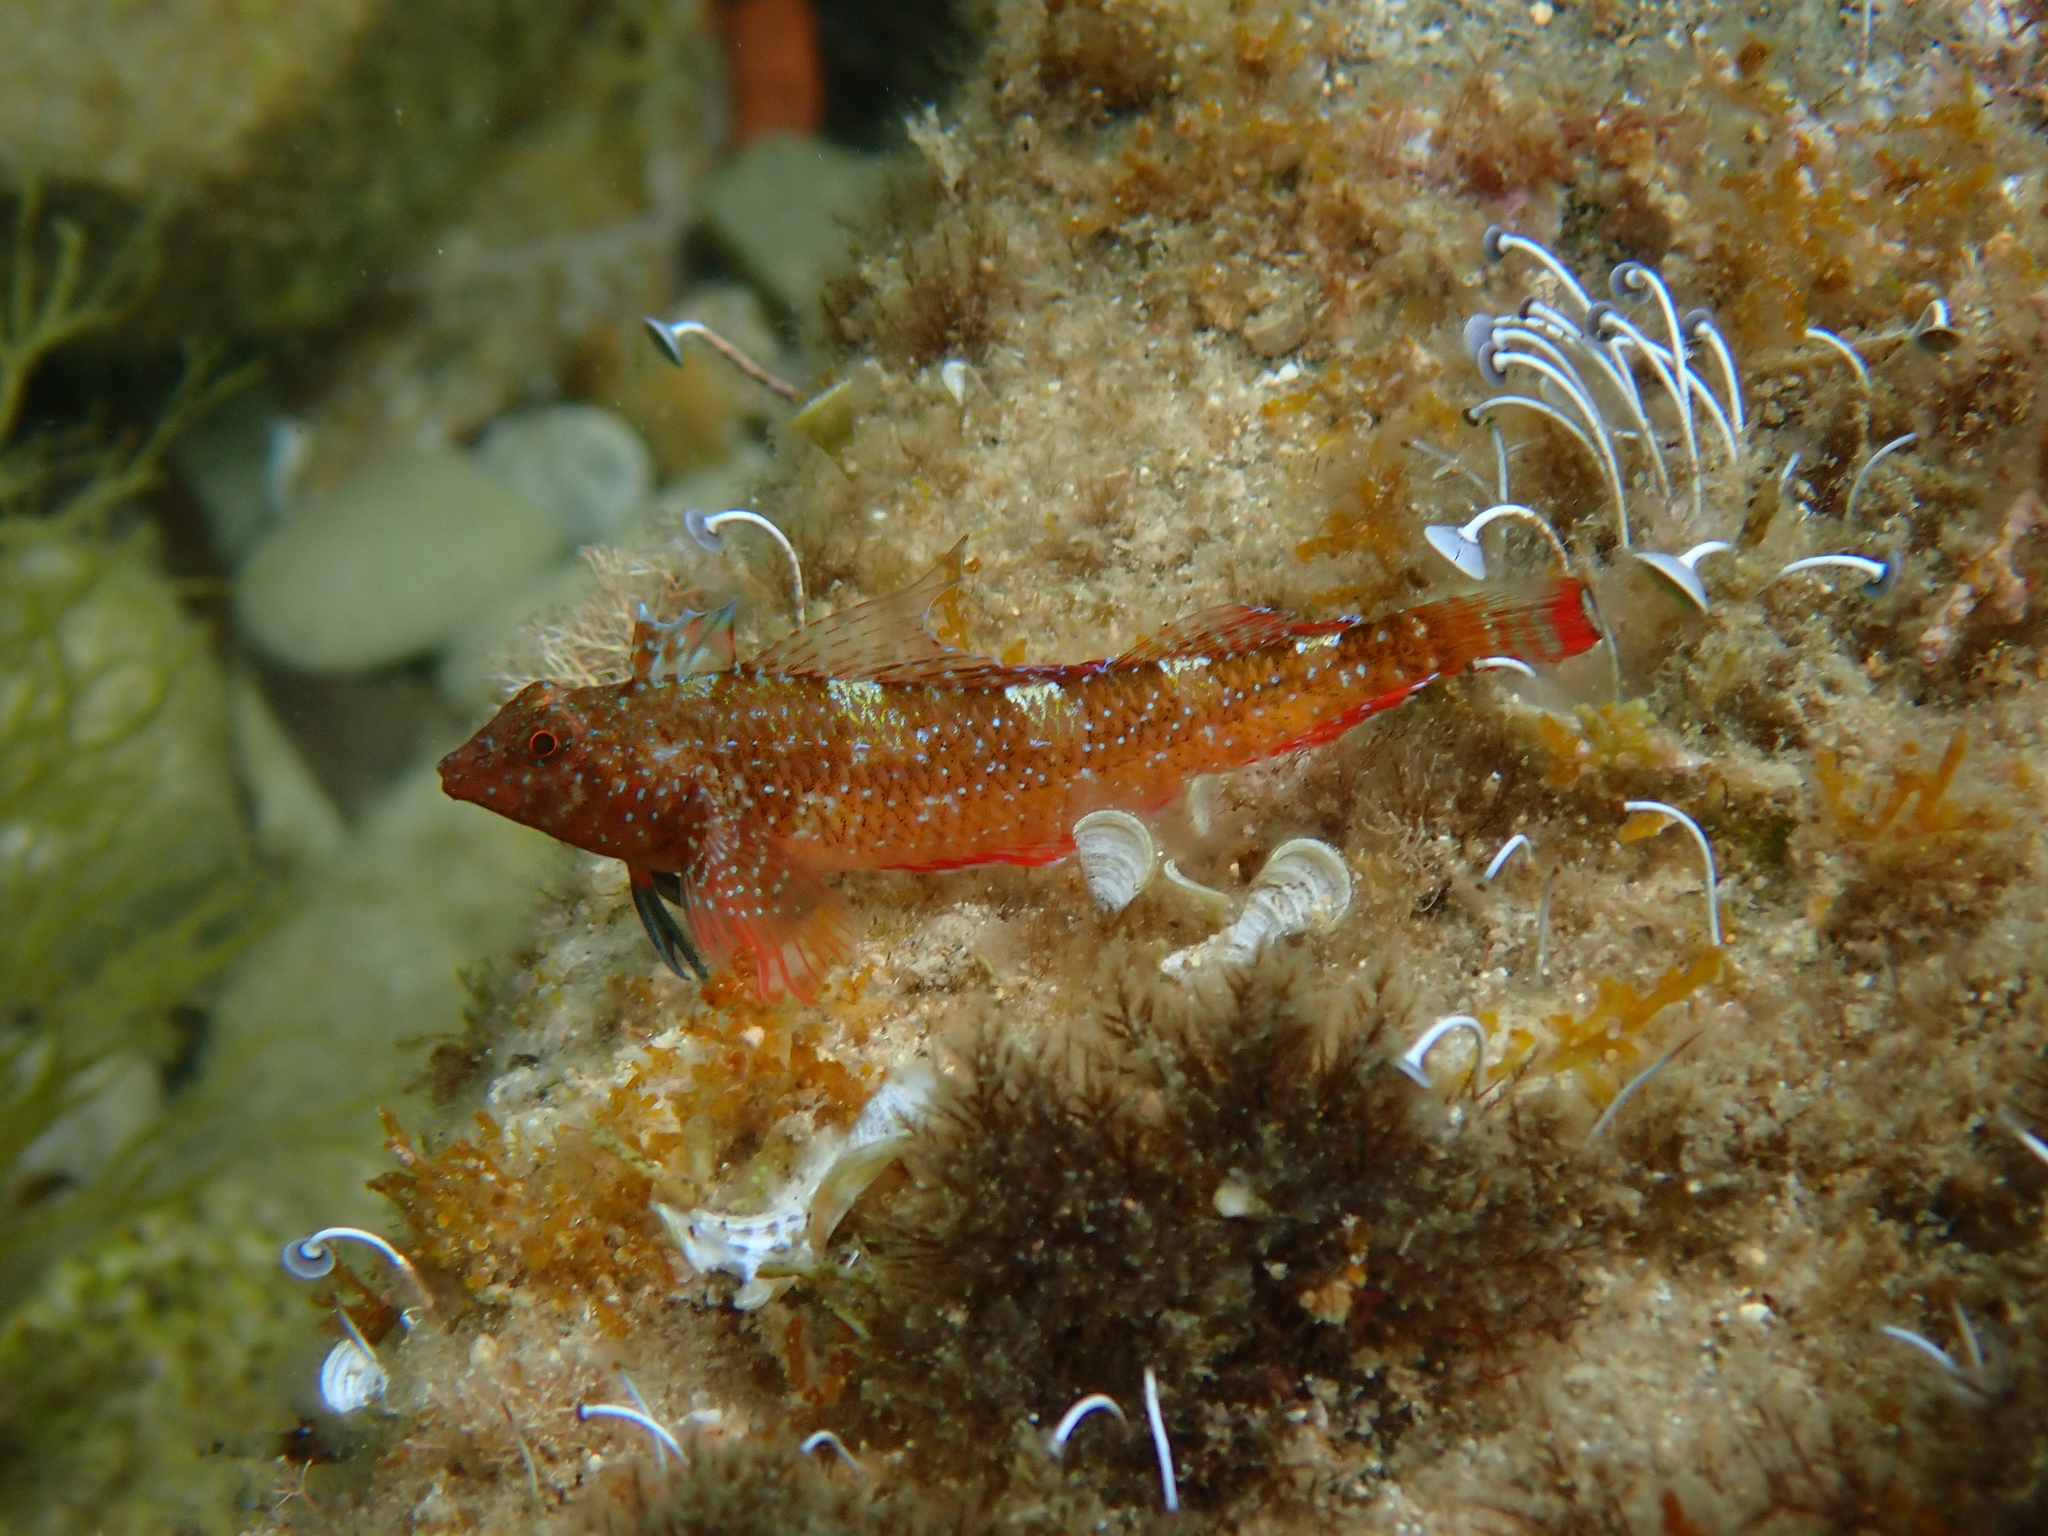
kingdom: Animalia
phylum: Chordata
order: Perciformes
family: Tripterygiidae
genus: Tripterygion
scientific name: Tripterygion tripteronotum
